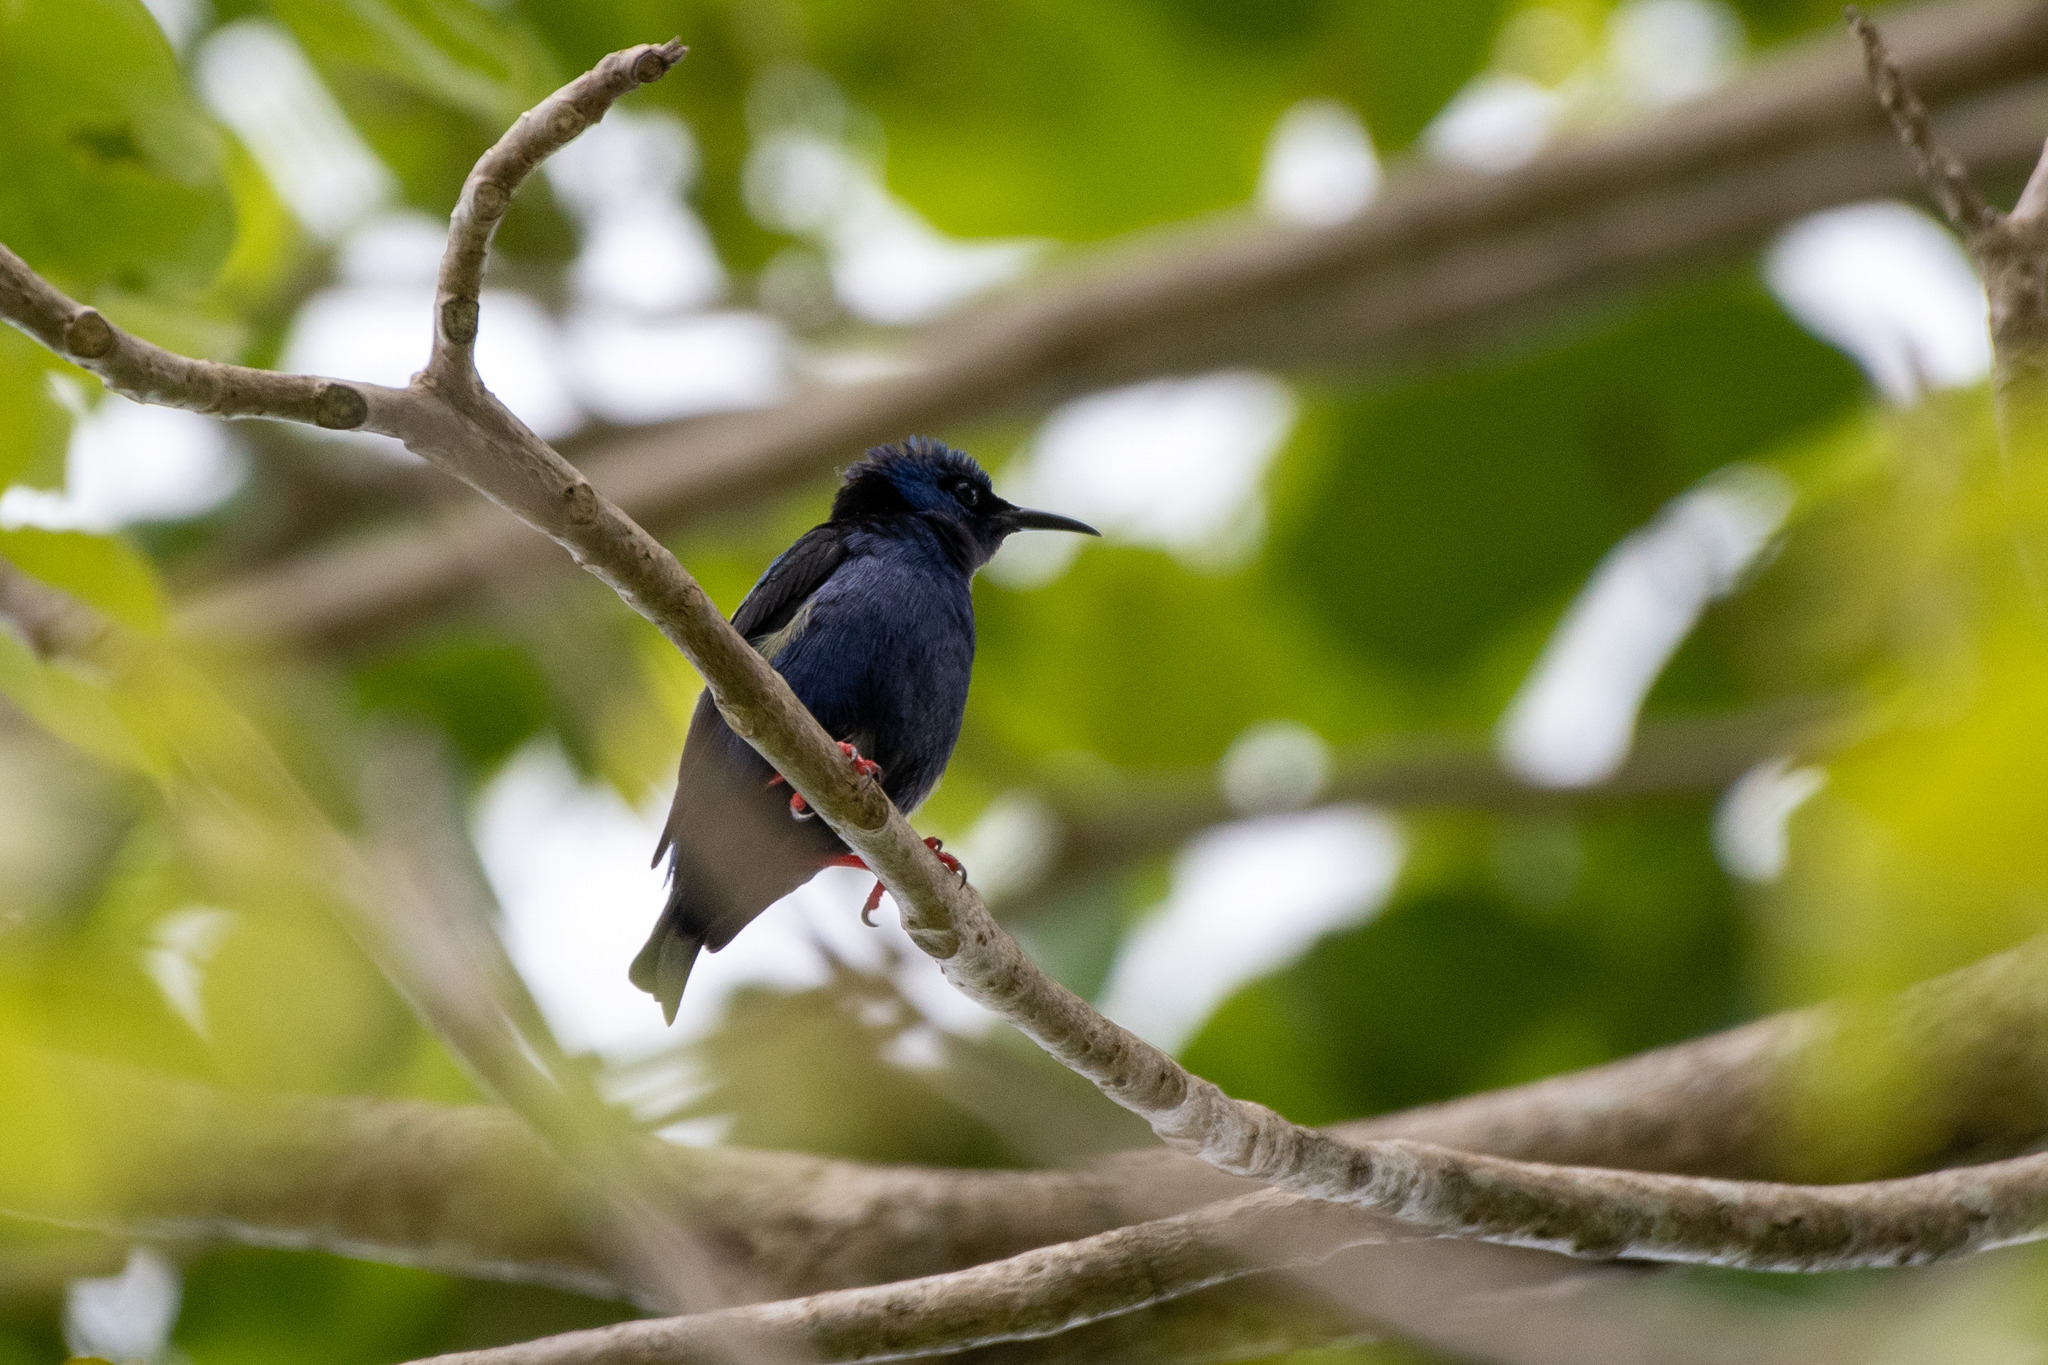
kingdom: Animalia
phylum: Chordata
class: Aves
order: Passeriformes
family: Thraupidae
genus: Cyanerpes
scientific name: Cyanerpes cyaneus
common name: Red-legged honeycreeper
